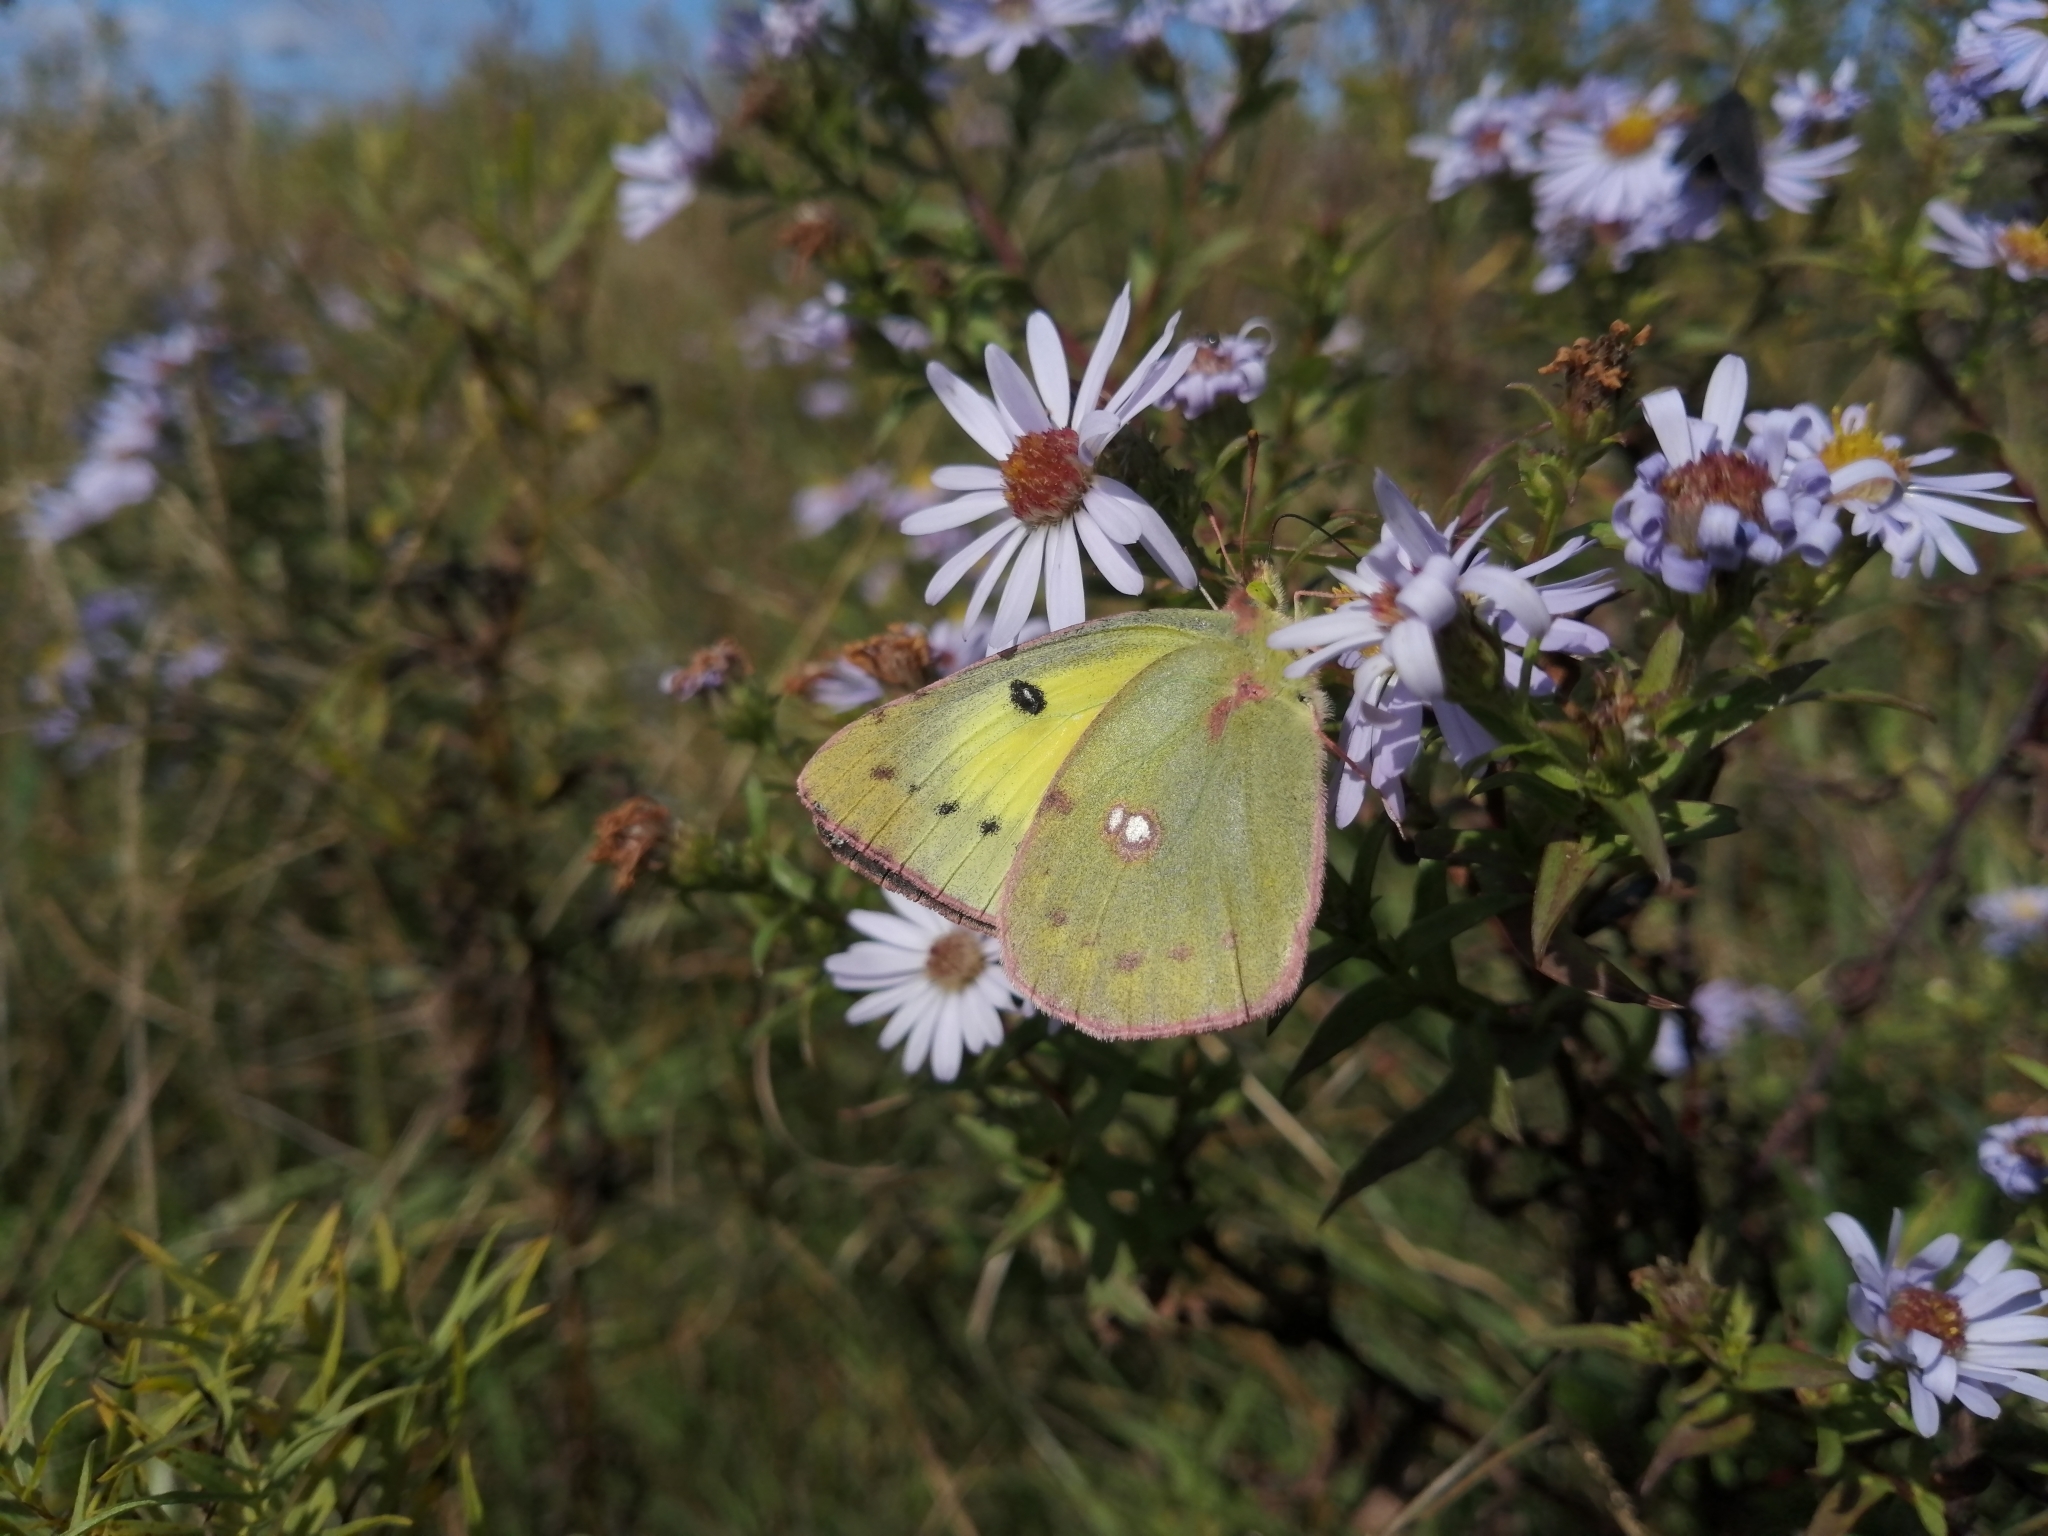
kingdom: Animalia
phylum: Arthropoda
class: Insecta
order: Lepidoptera
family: Pieridae
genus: Colias
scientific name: Colias philodice
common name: Clouded sulphur
